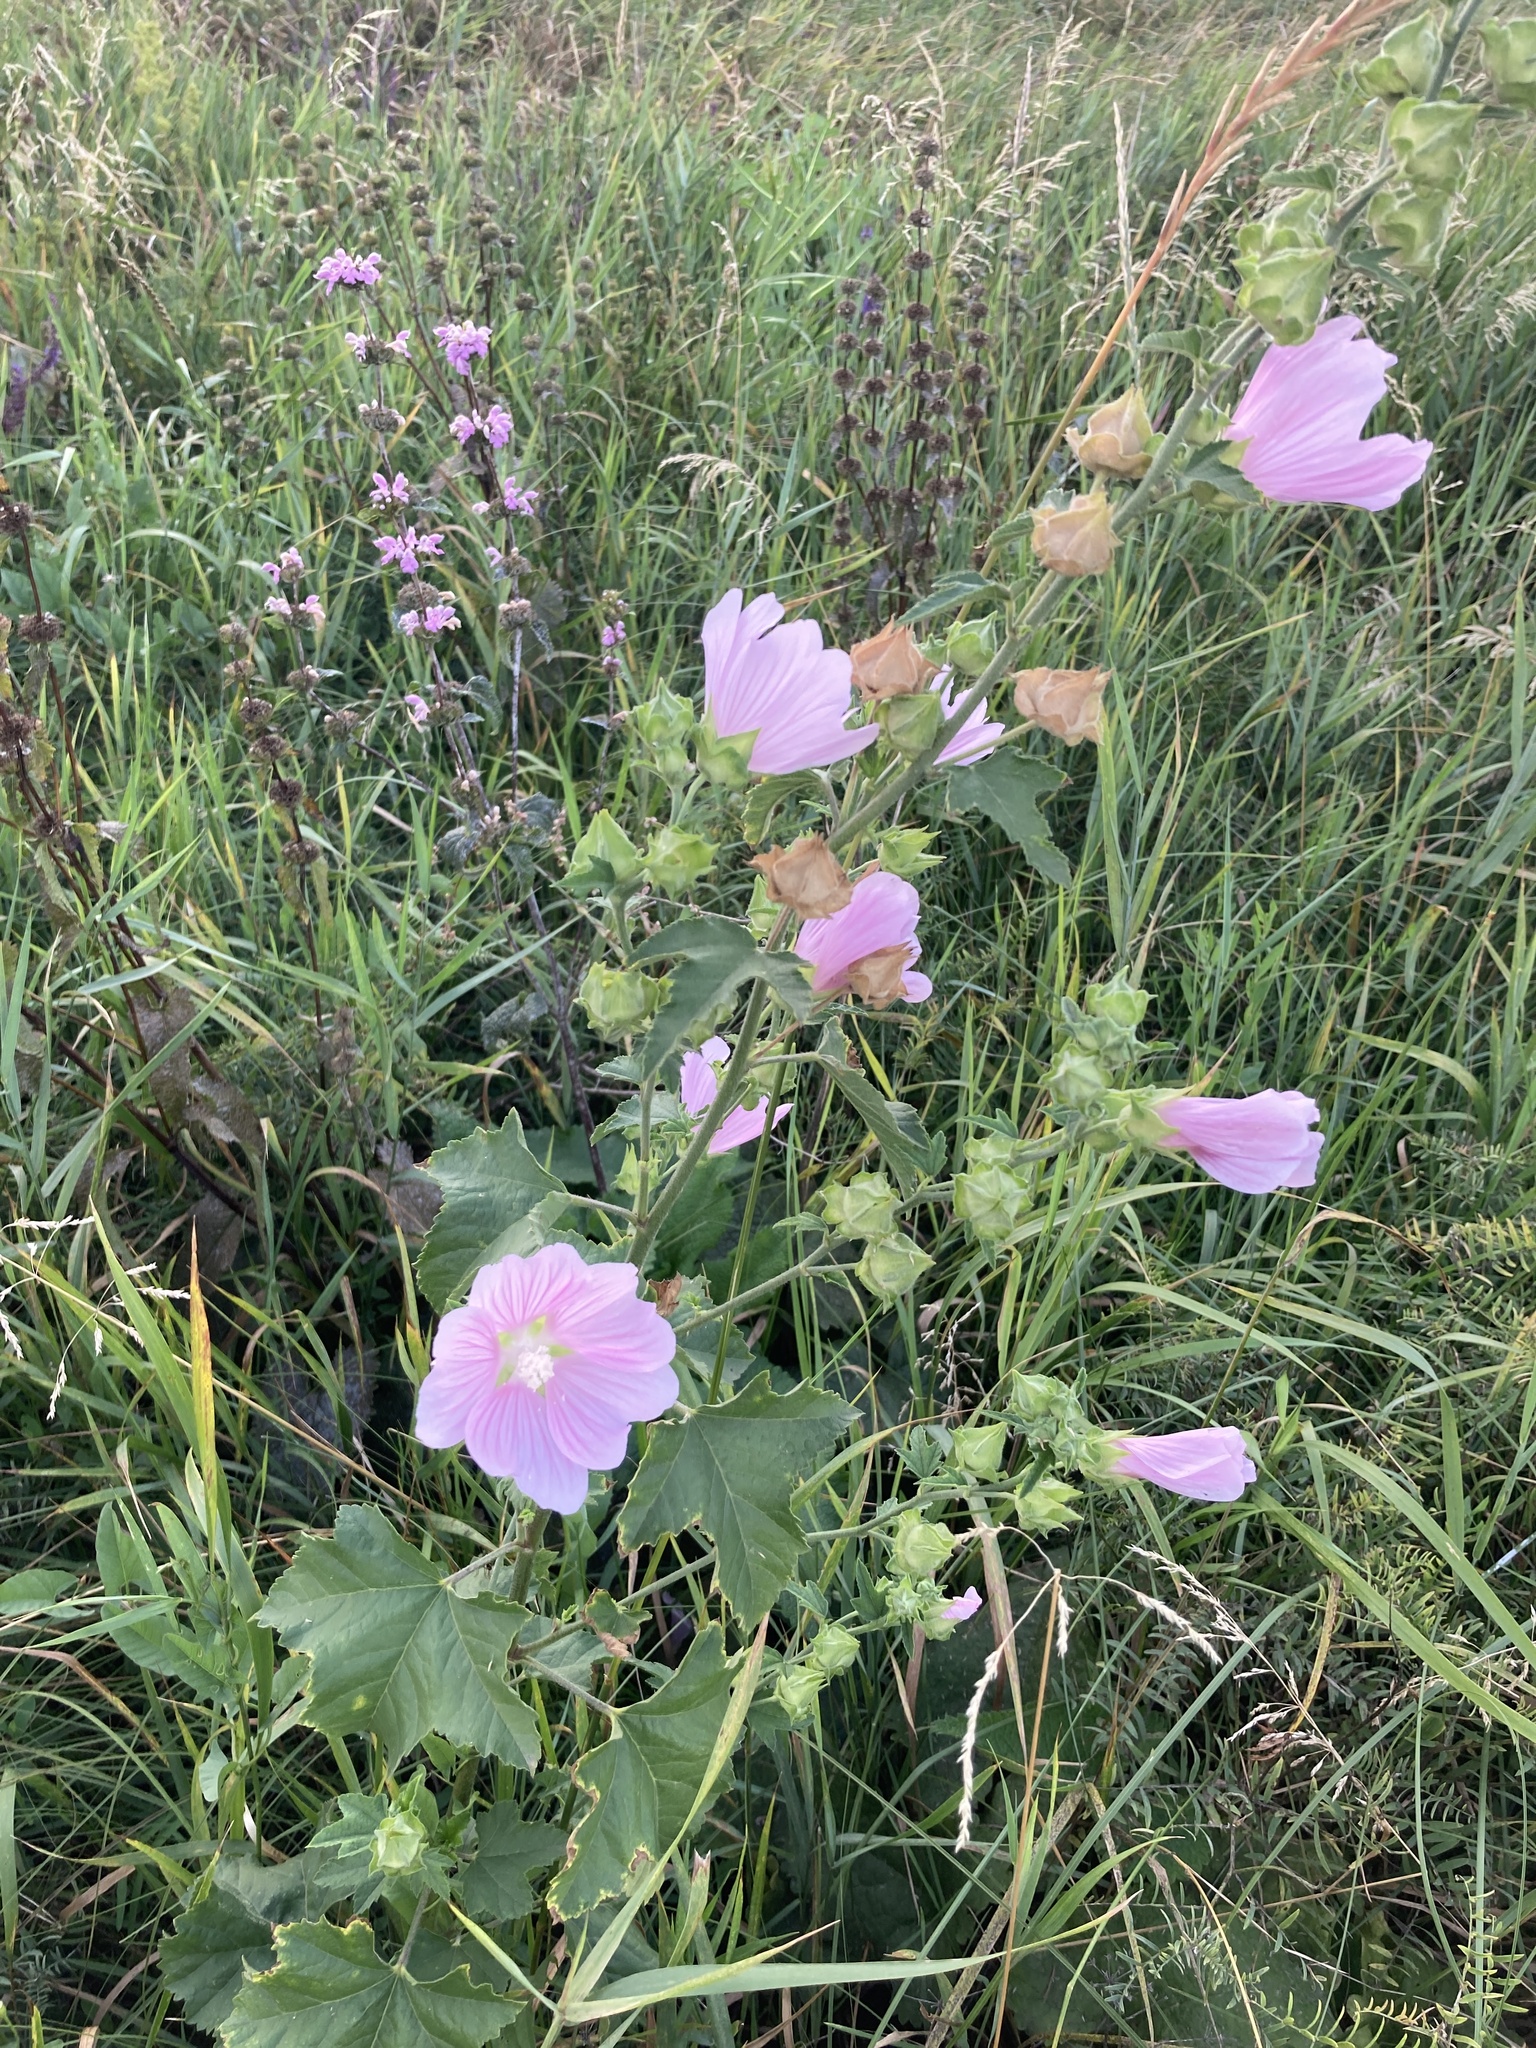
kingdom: Plantae
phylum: Tracheophyta
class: Magnoliopsida
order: Malvales
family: Malvaceae
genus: Malva
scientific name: Malva thuringiaca
